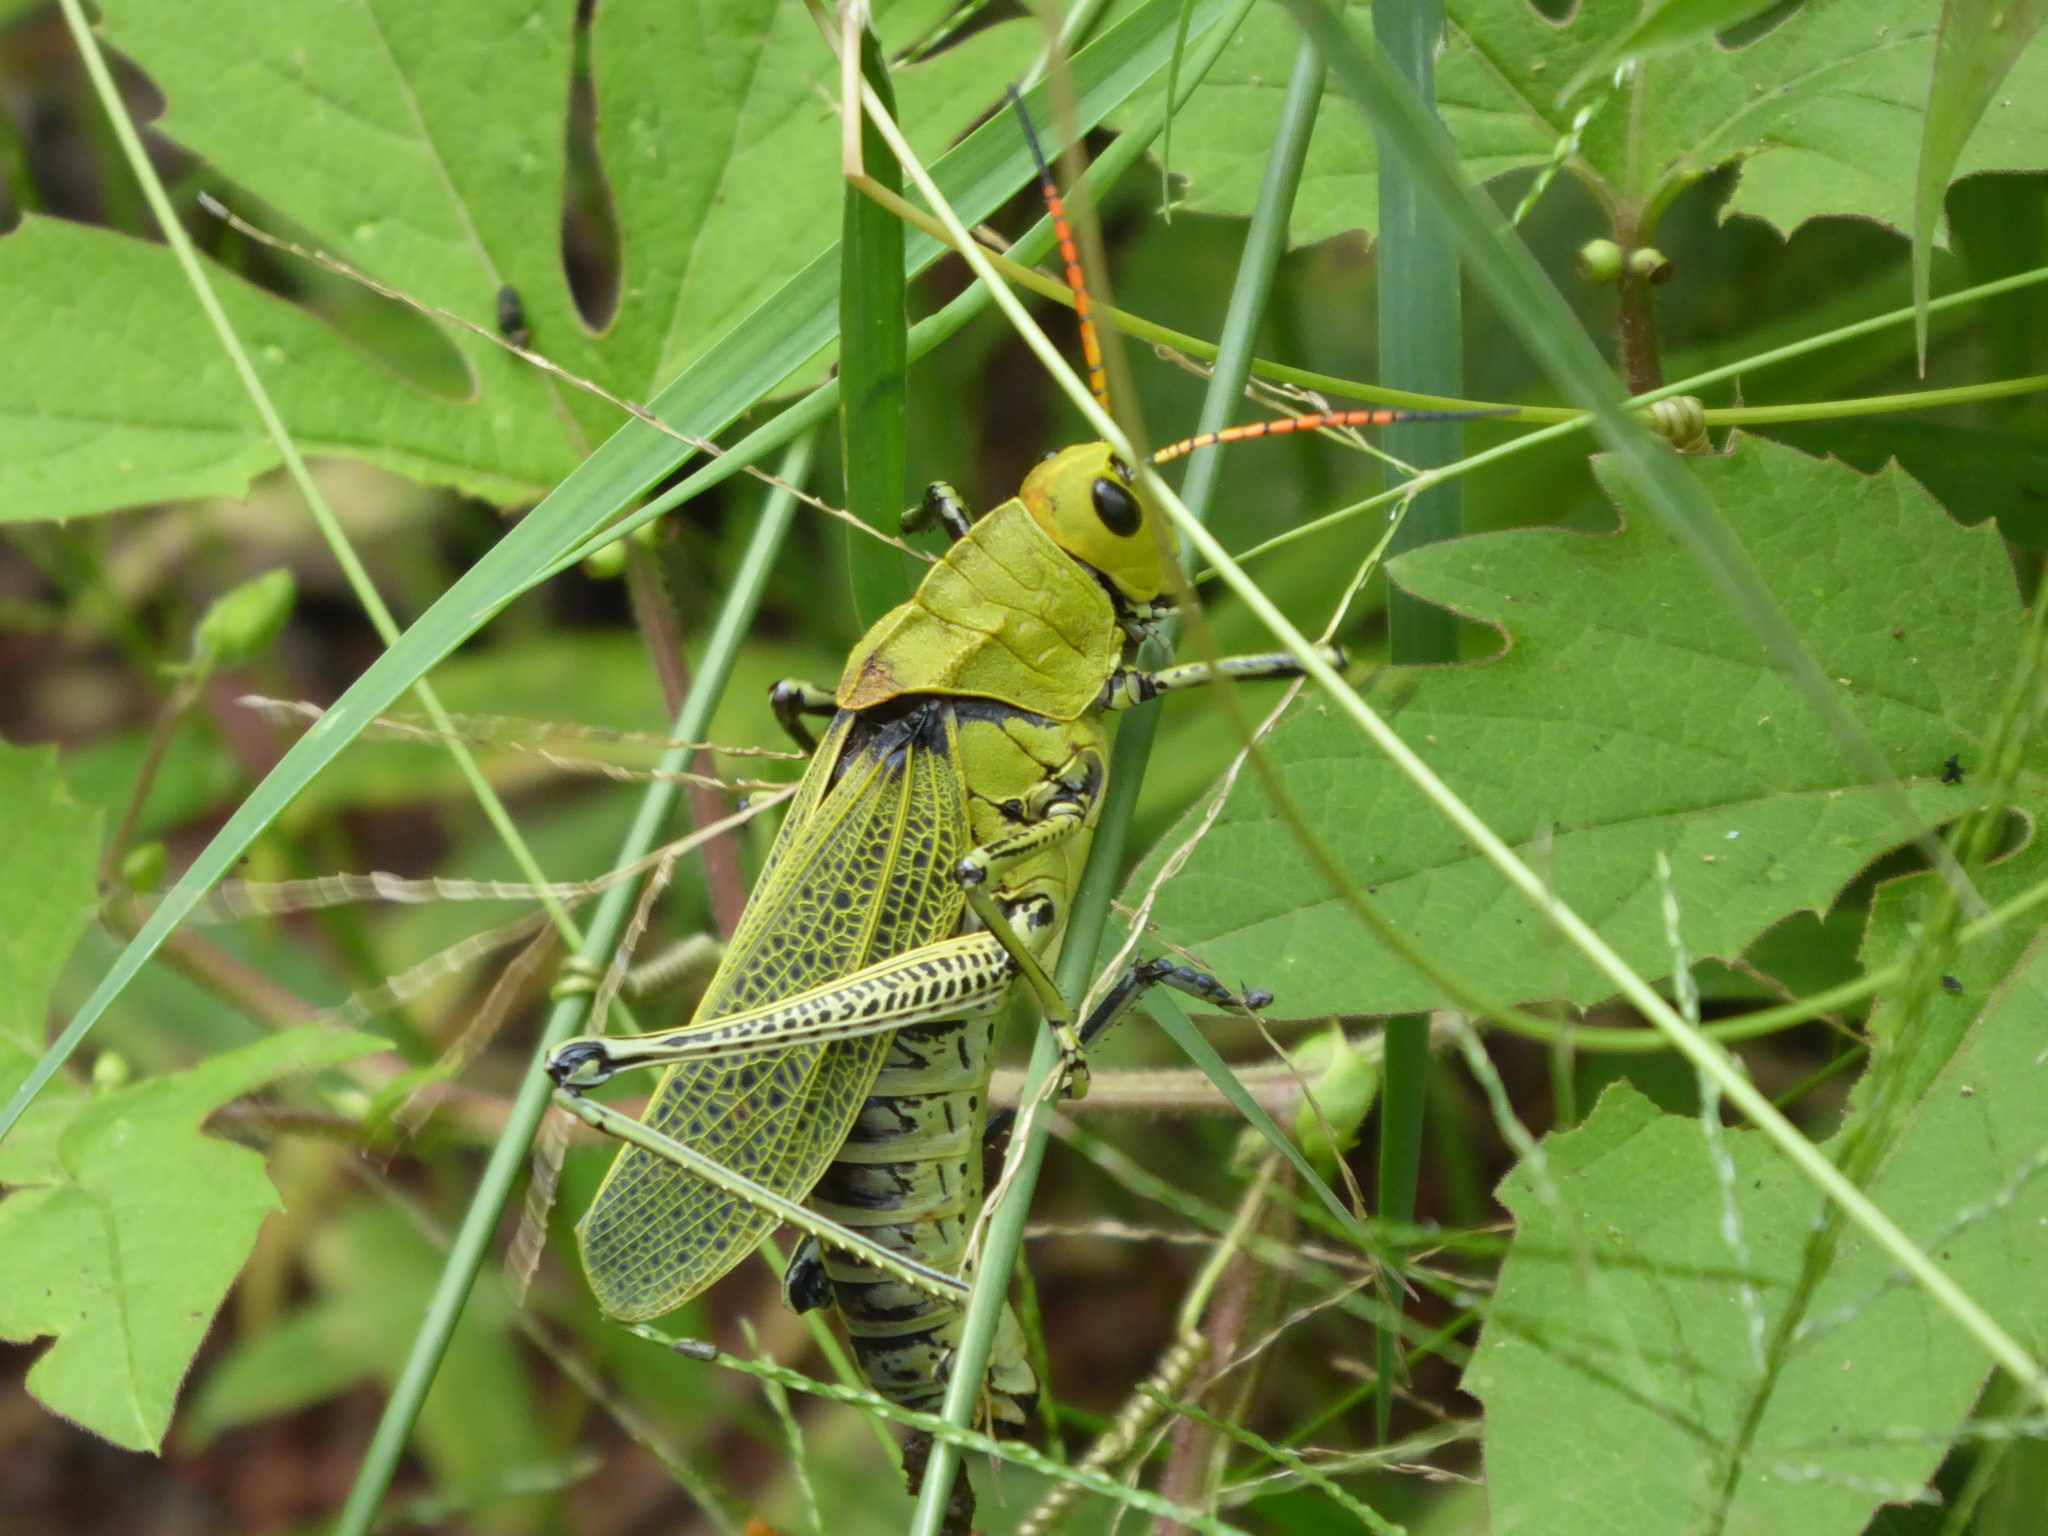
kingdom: Animalia
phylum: Arthropoda
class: Insecta
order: Orthoptera
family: Romaleidae
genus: Romalea
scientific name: Romalea
